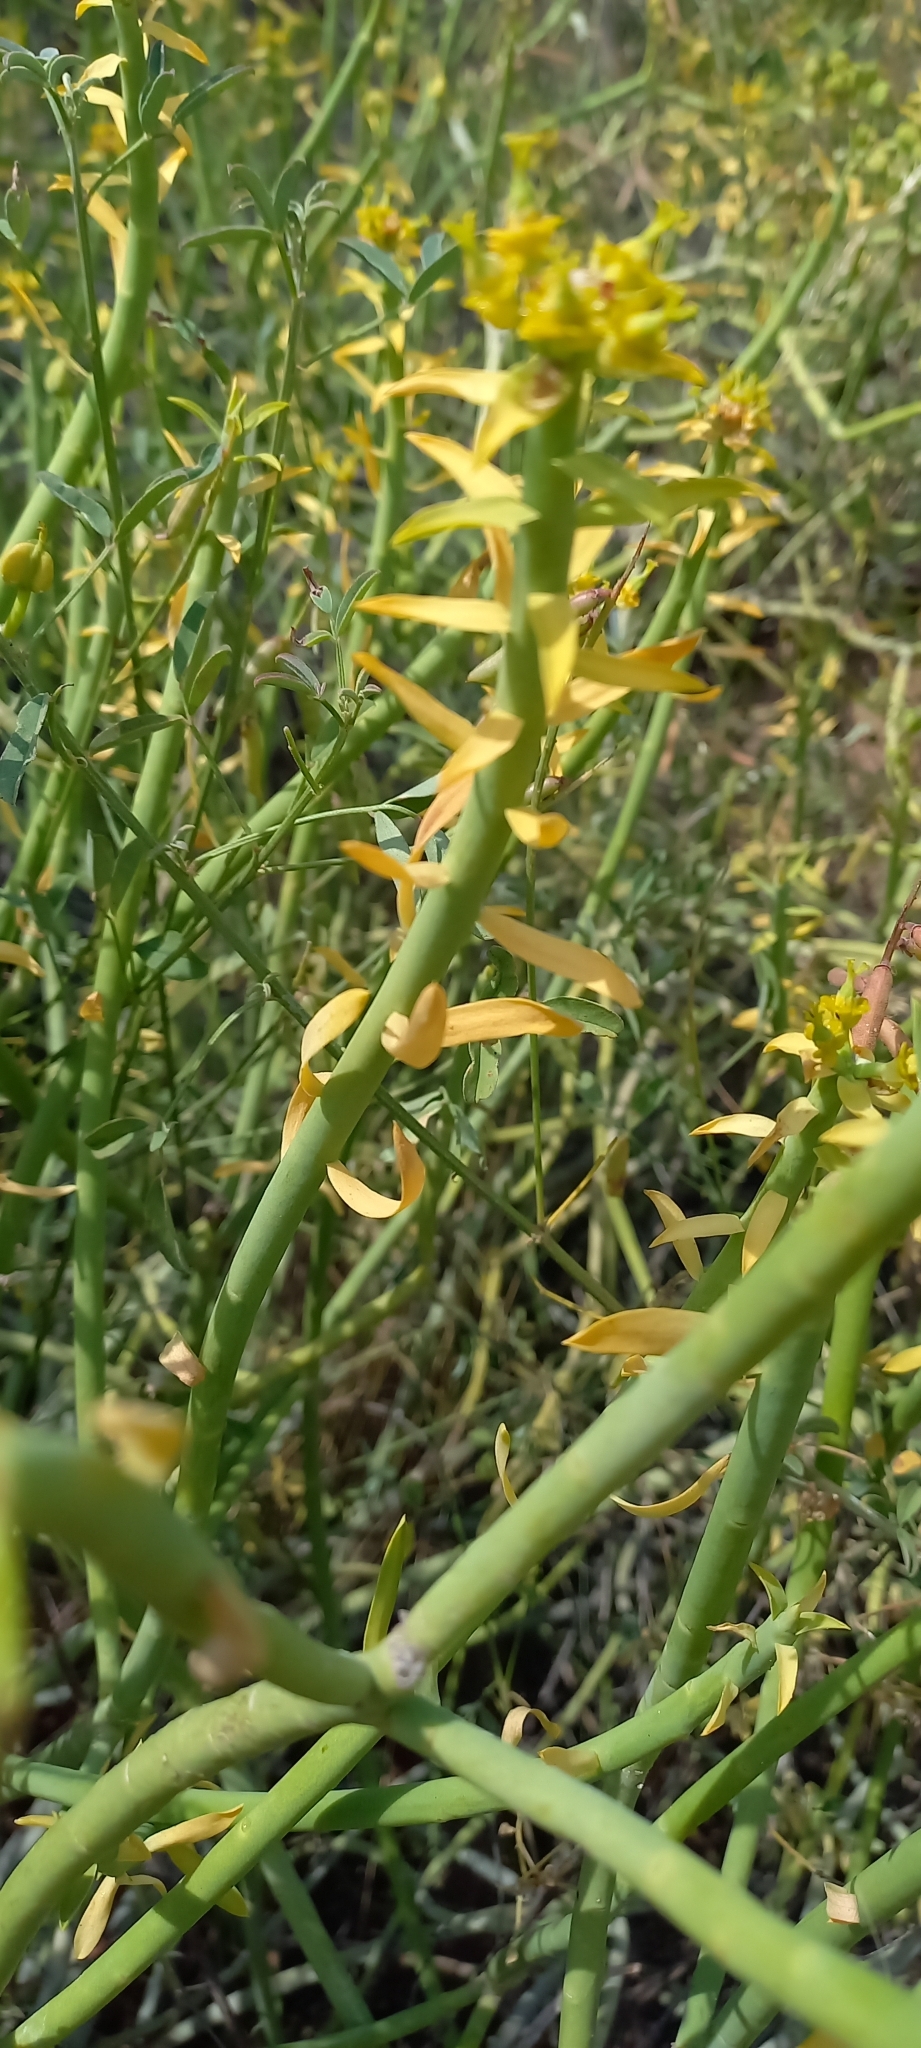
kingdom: Plantae
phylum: Tracheophyta
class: Magnoliopsida
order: Malpighiales
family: Euphorbiaceae
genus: Euphorbia
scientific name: Euphorbia mauritanica
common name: Jackal's-food
